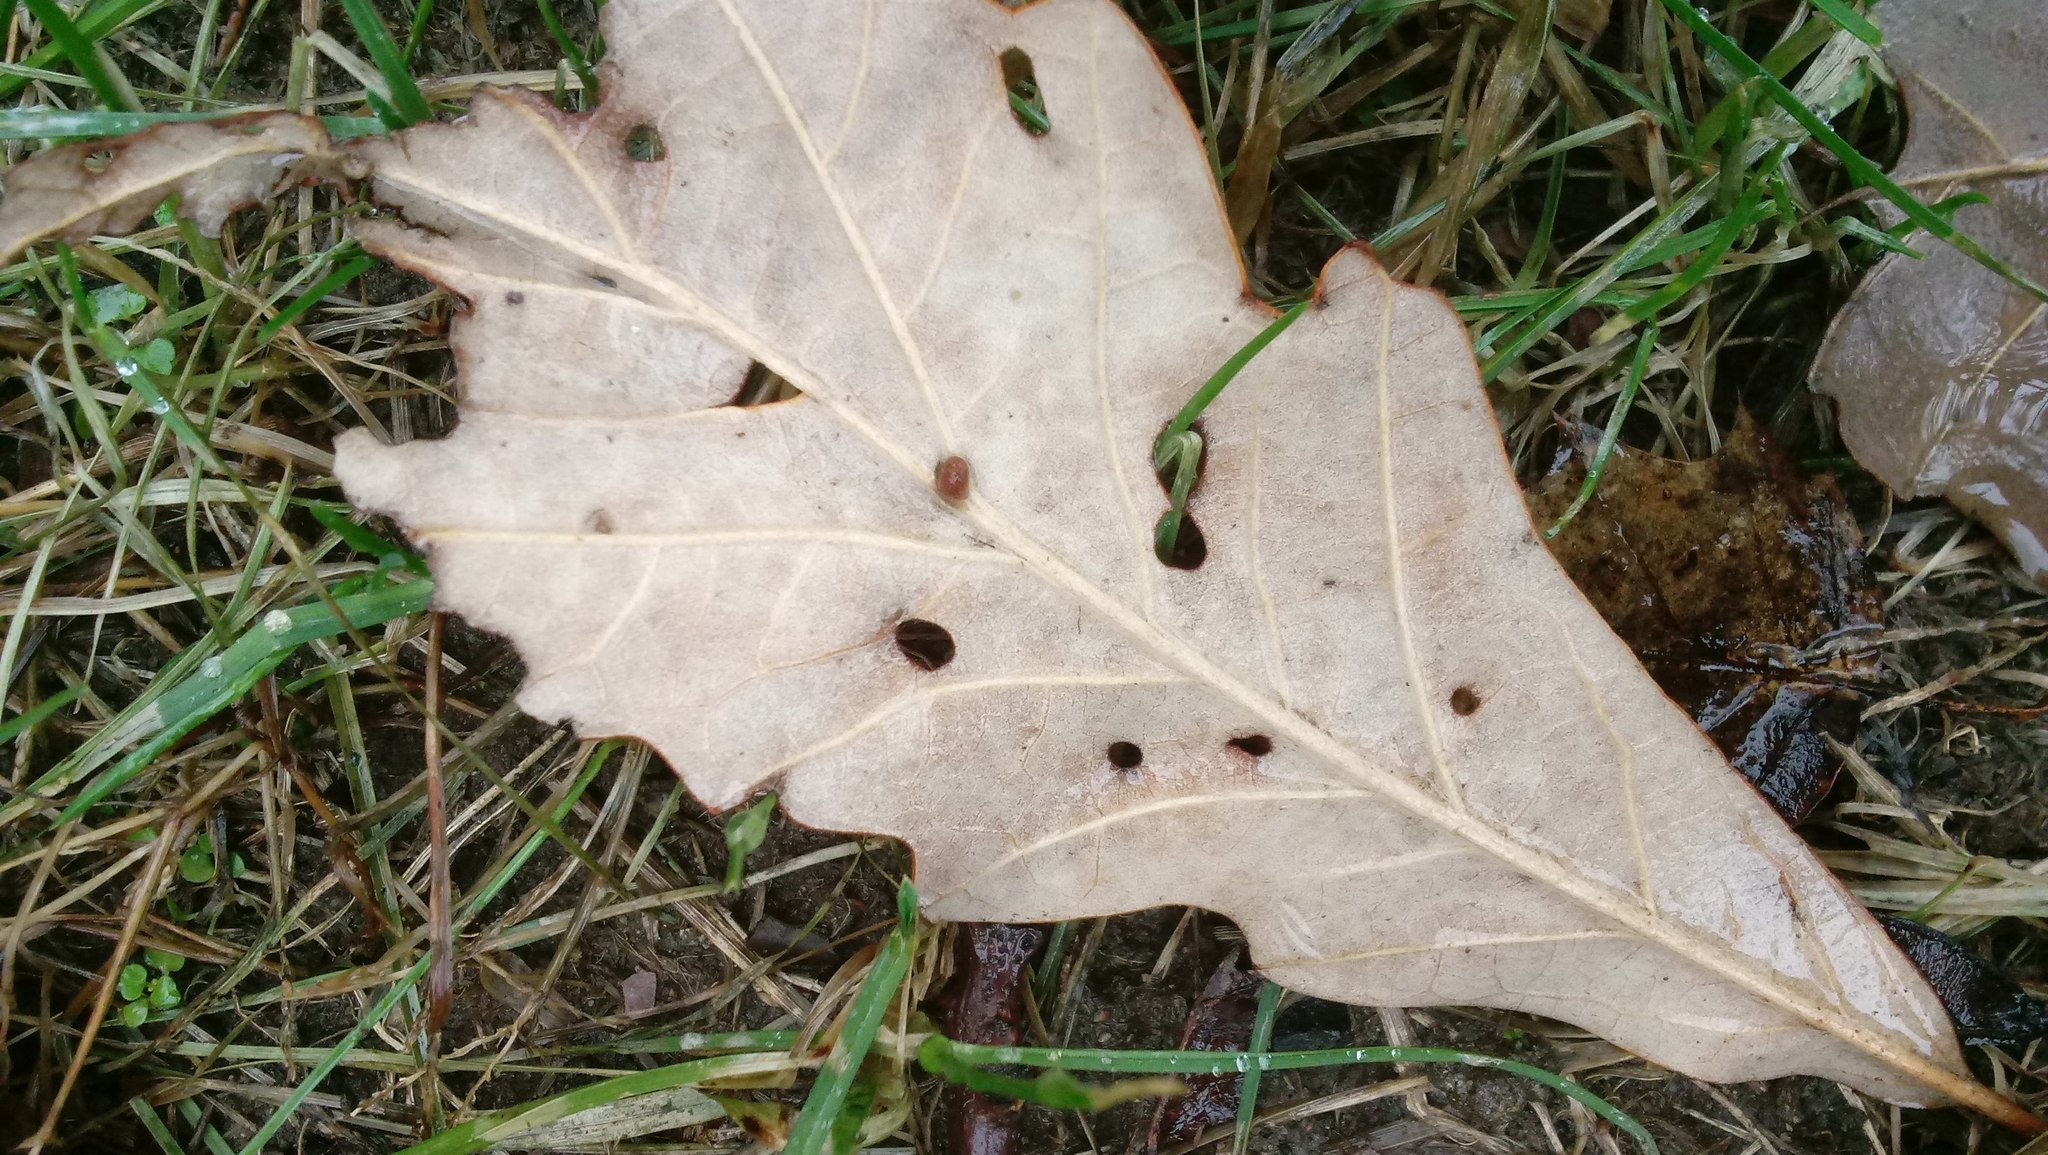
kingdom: Animalia
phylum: Arthropoda
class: Insecta
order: Hymenoptera
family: Cynipidae
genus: Andricus
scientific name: Andricus Druon ignotum
